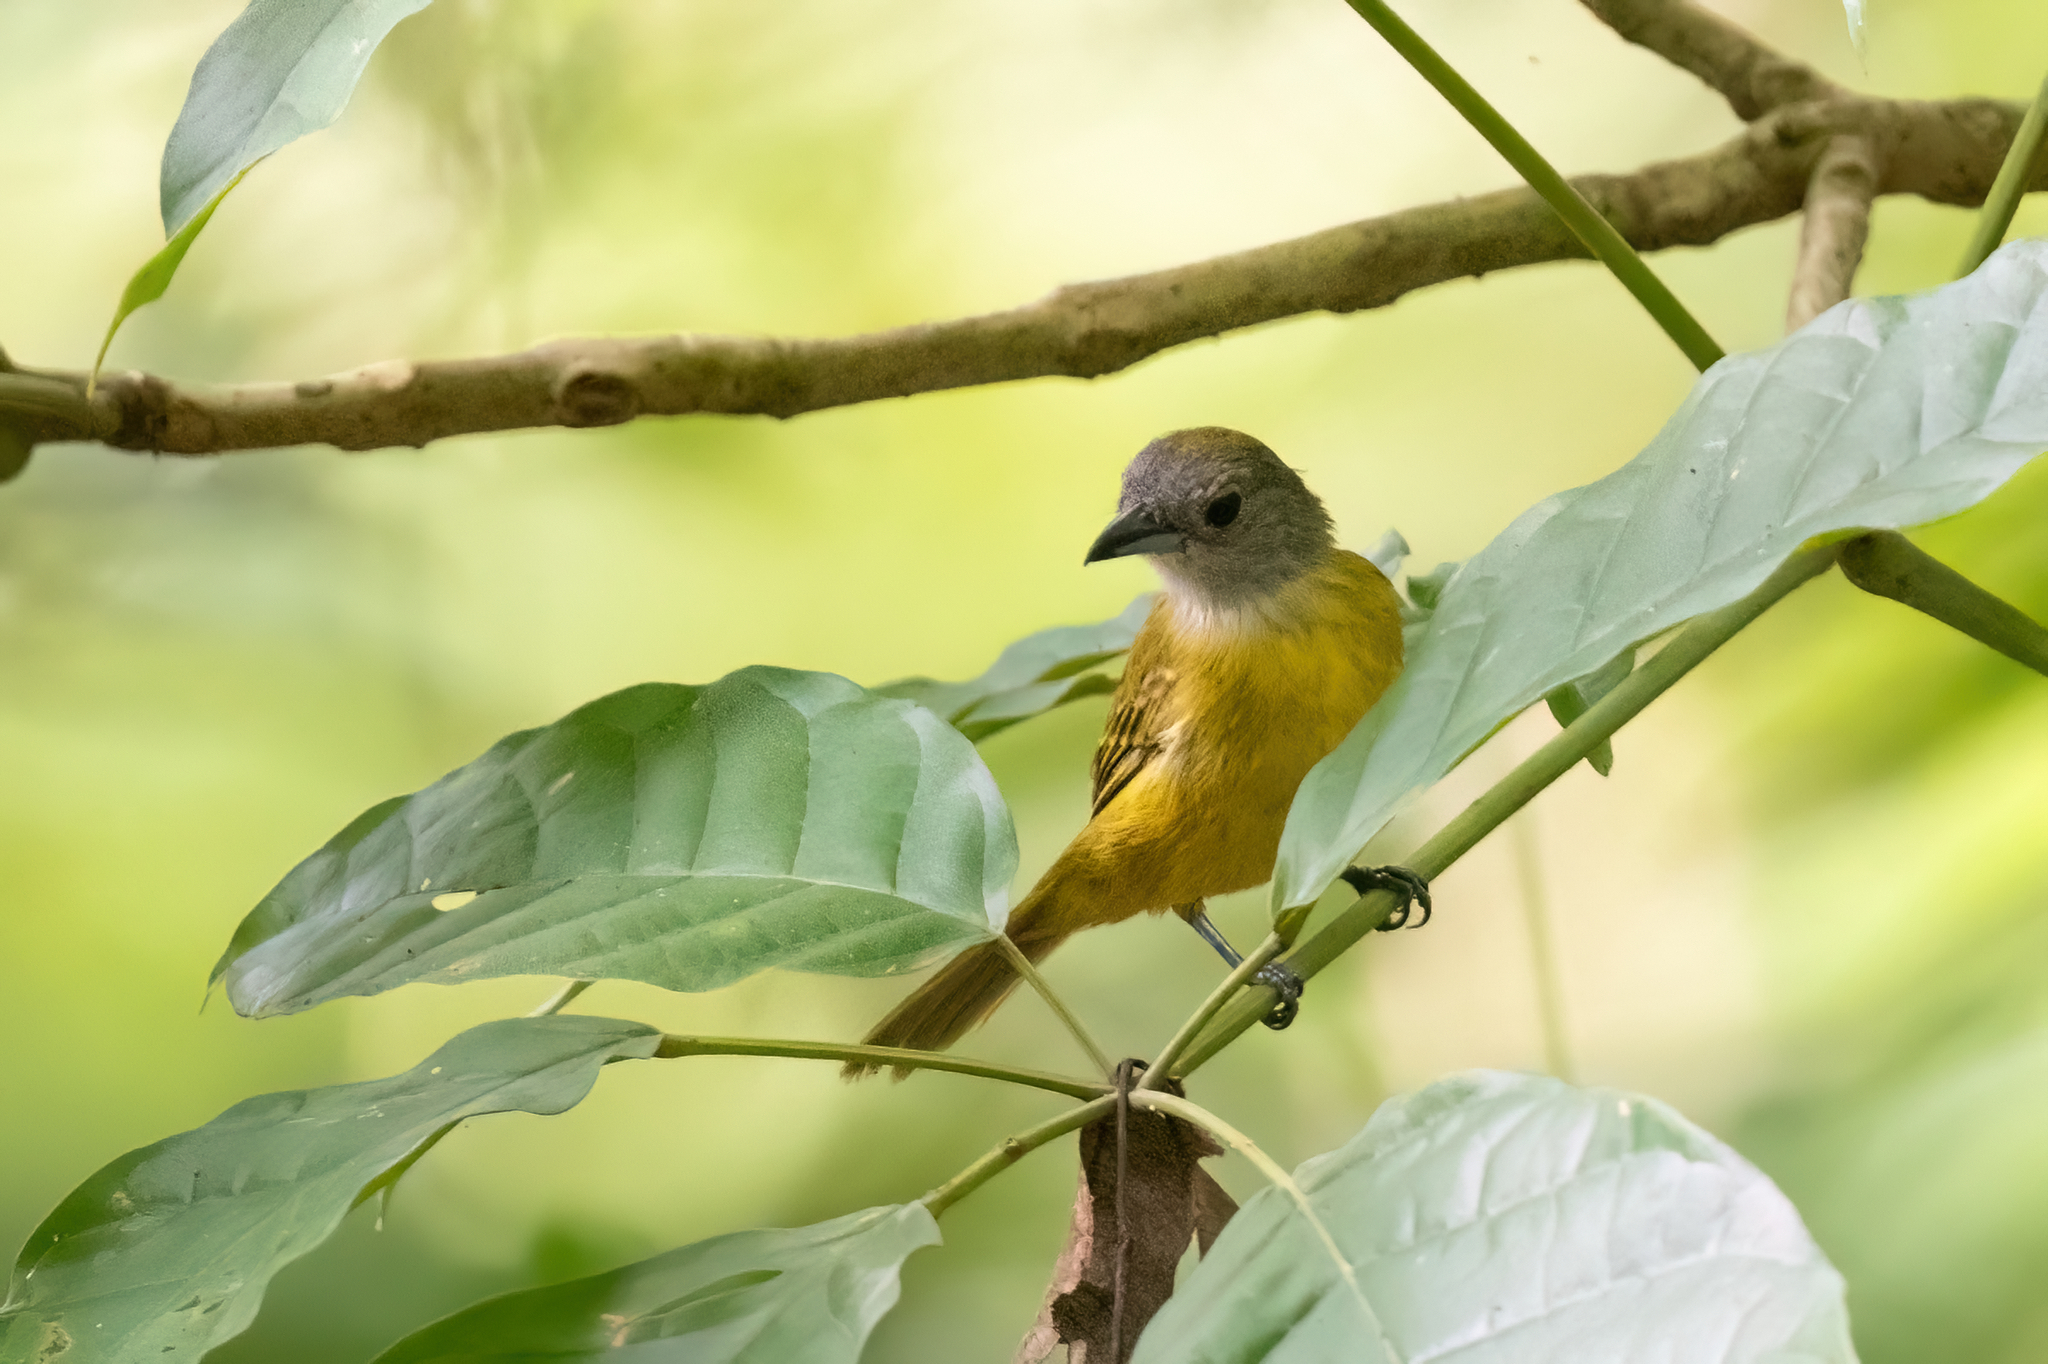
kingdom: Animalia
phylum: Chordata
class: Aves
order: Passeriformes
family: Thraupidae
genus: Loriotus
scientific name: Loriotus luctuosus
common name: White-shouldered tanager
